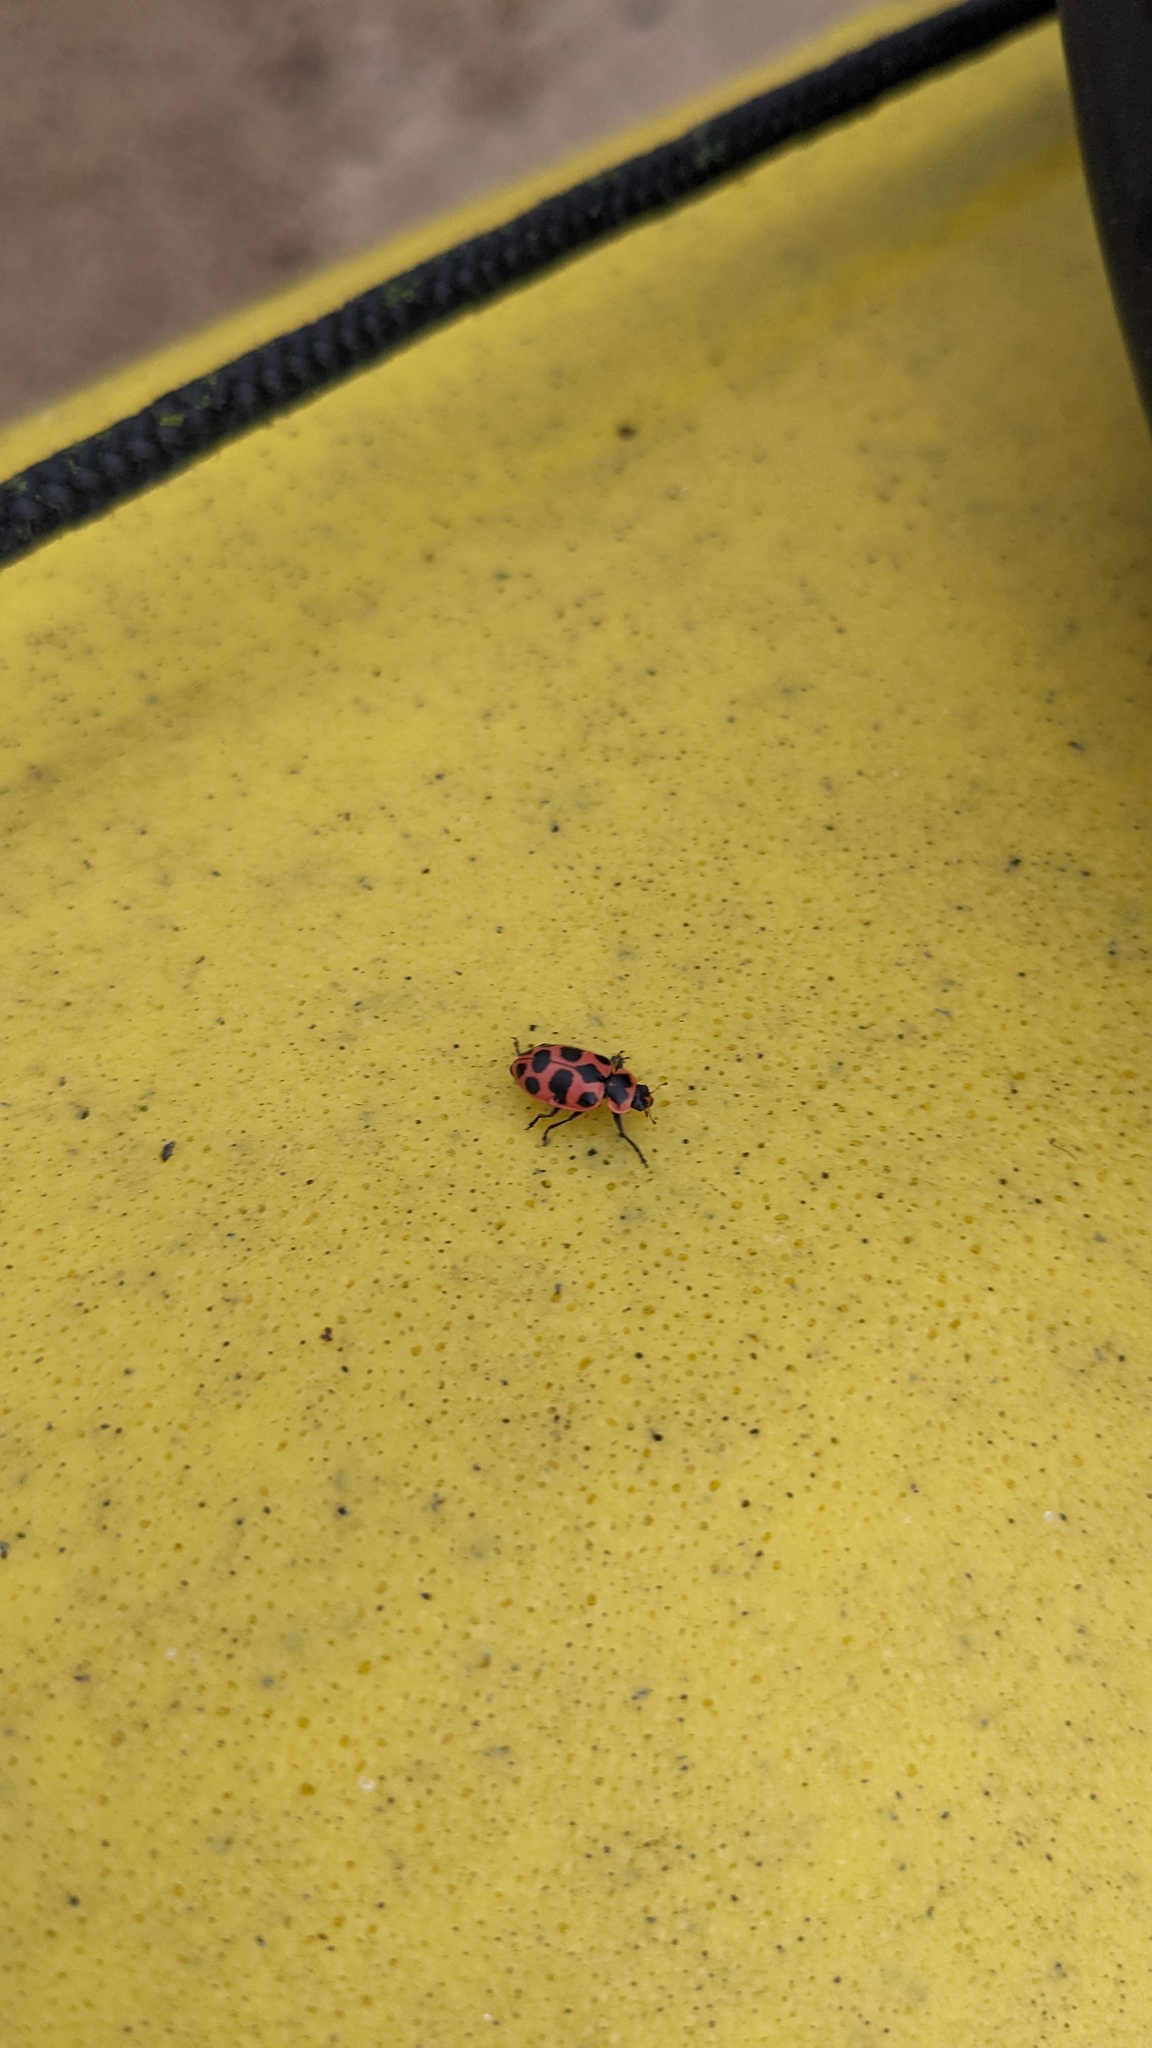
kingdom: Animalia
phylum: Arthropoda
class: Insecta
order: Coleoptera
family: Coccinellidae
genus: Coleomegilla
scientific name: Coleomegilla maculata
